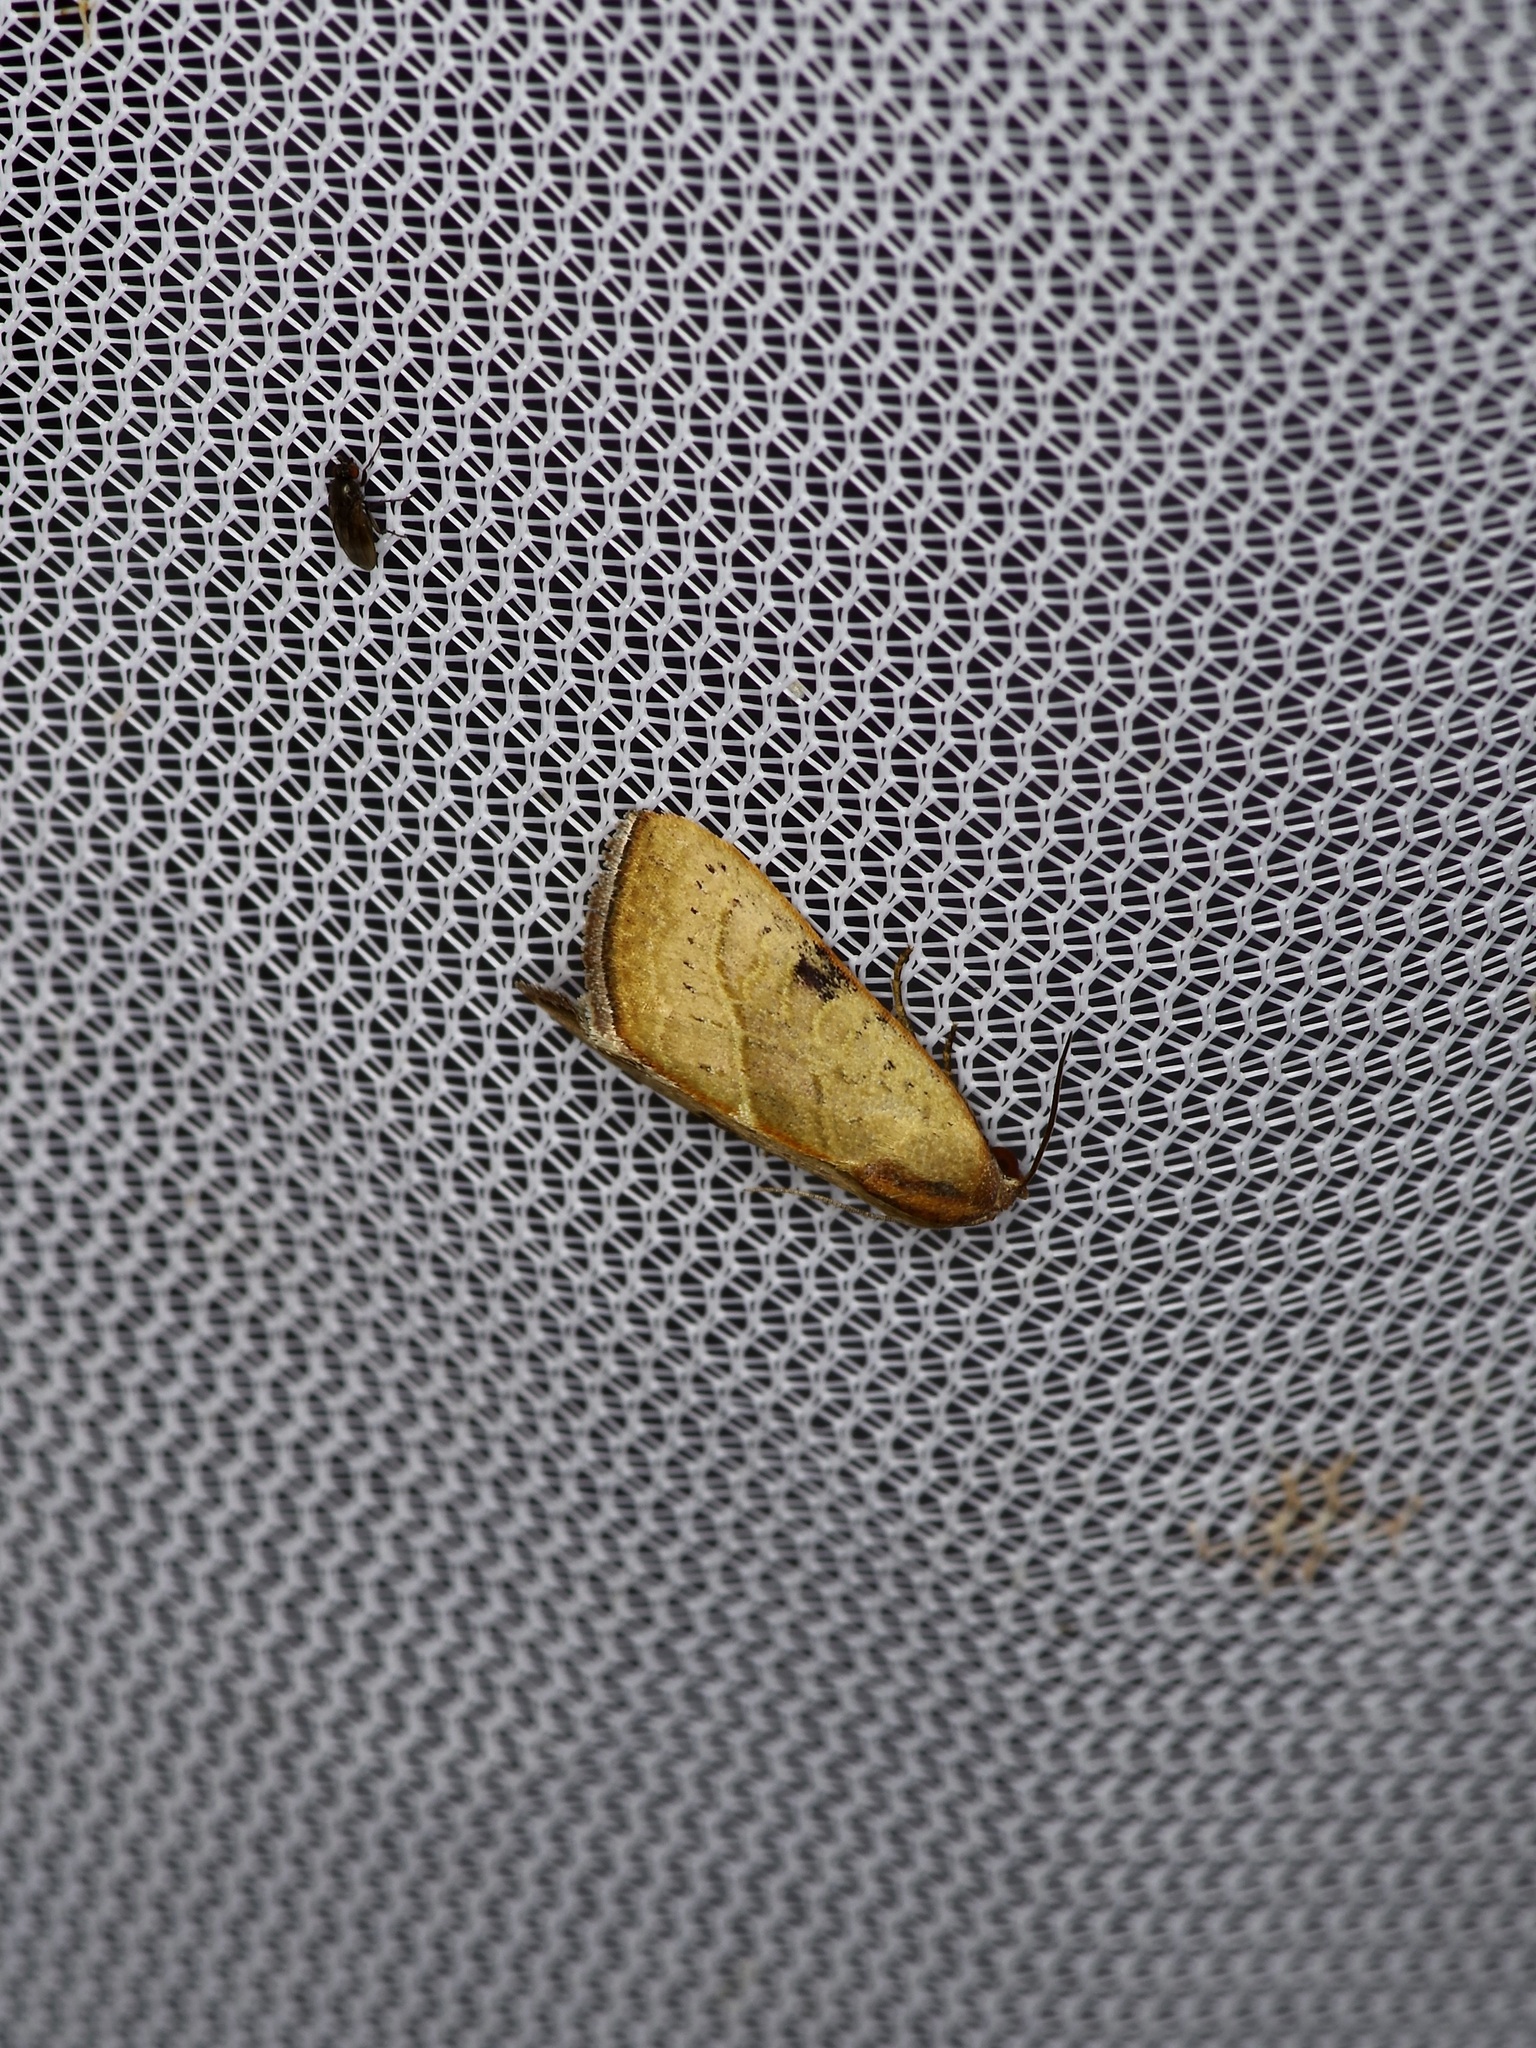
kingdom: Animalia
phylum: Arthropoda
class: Insecta
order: Lepidoptera
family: Noctuidae
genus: Galgula
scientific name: Galgula partita
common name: Wedgeling
